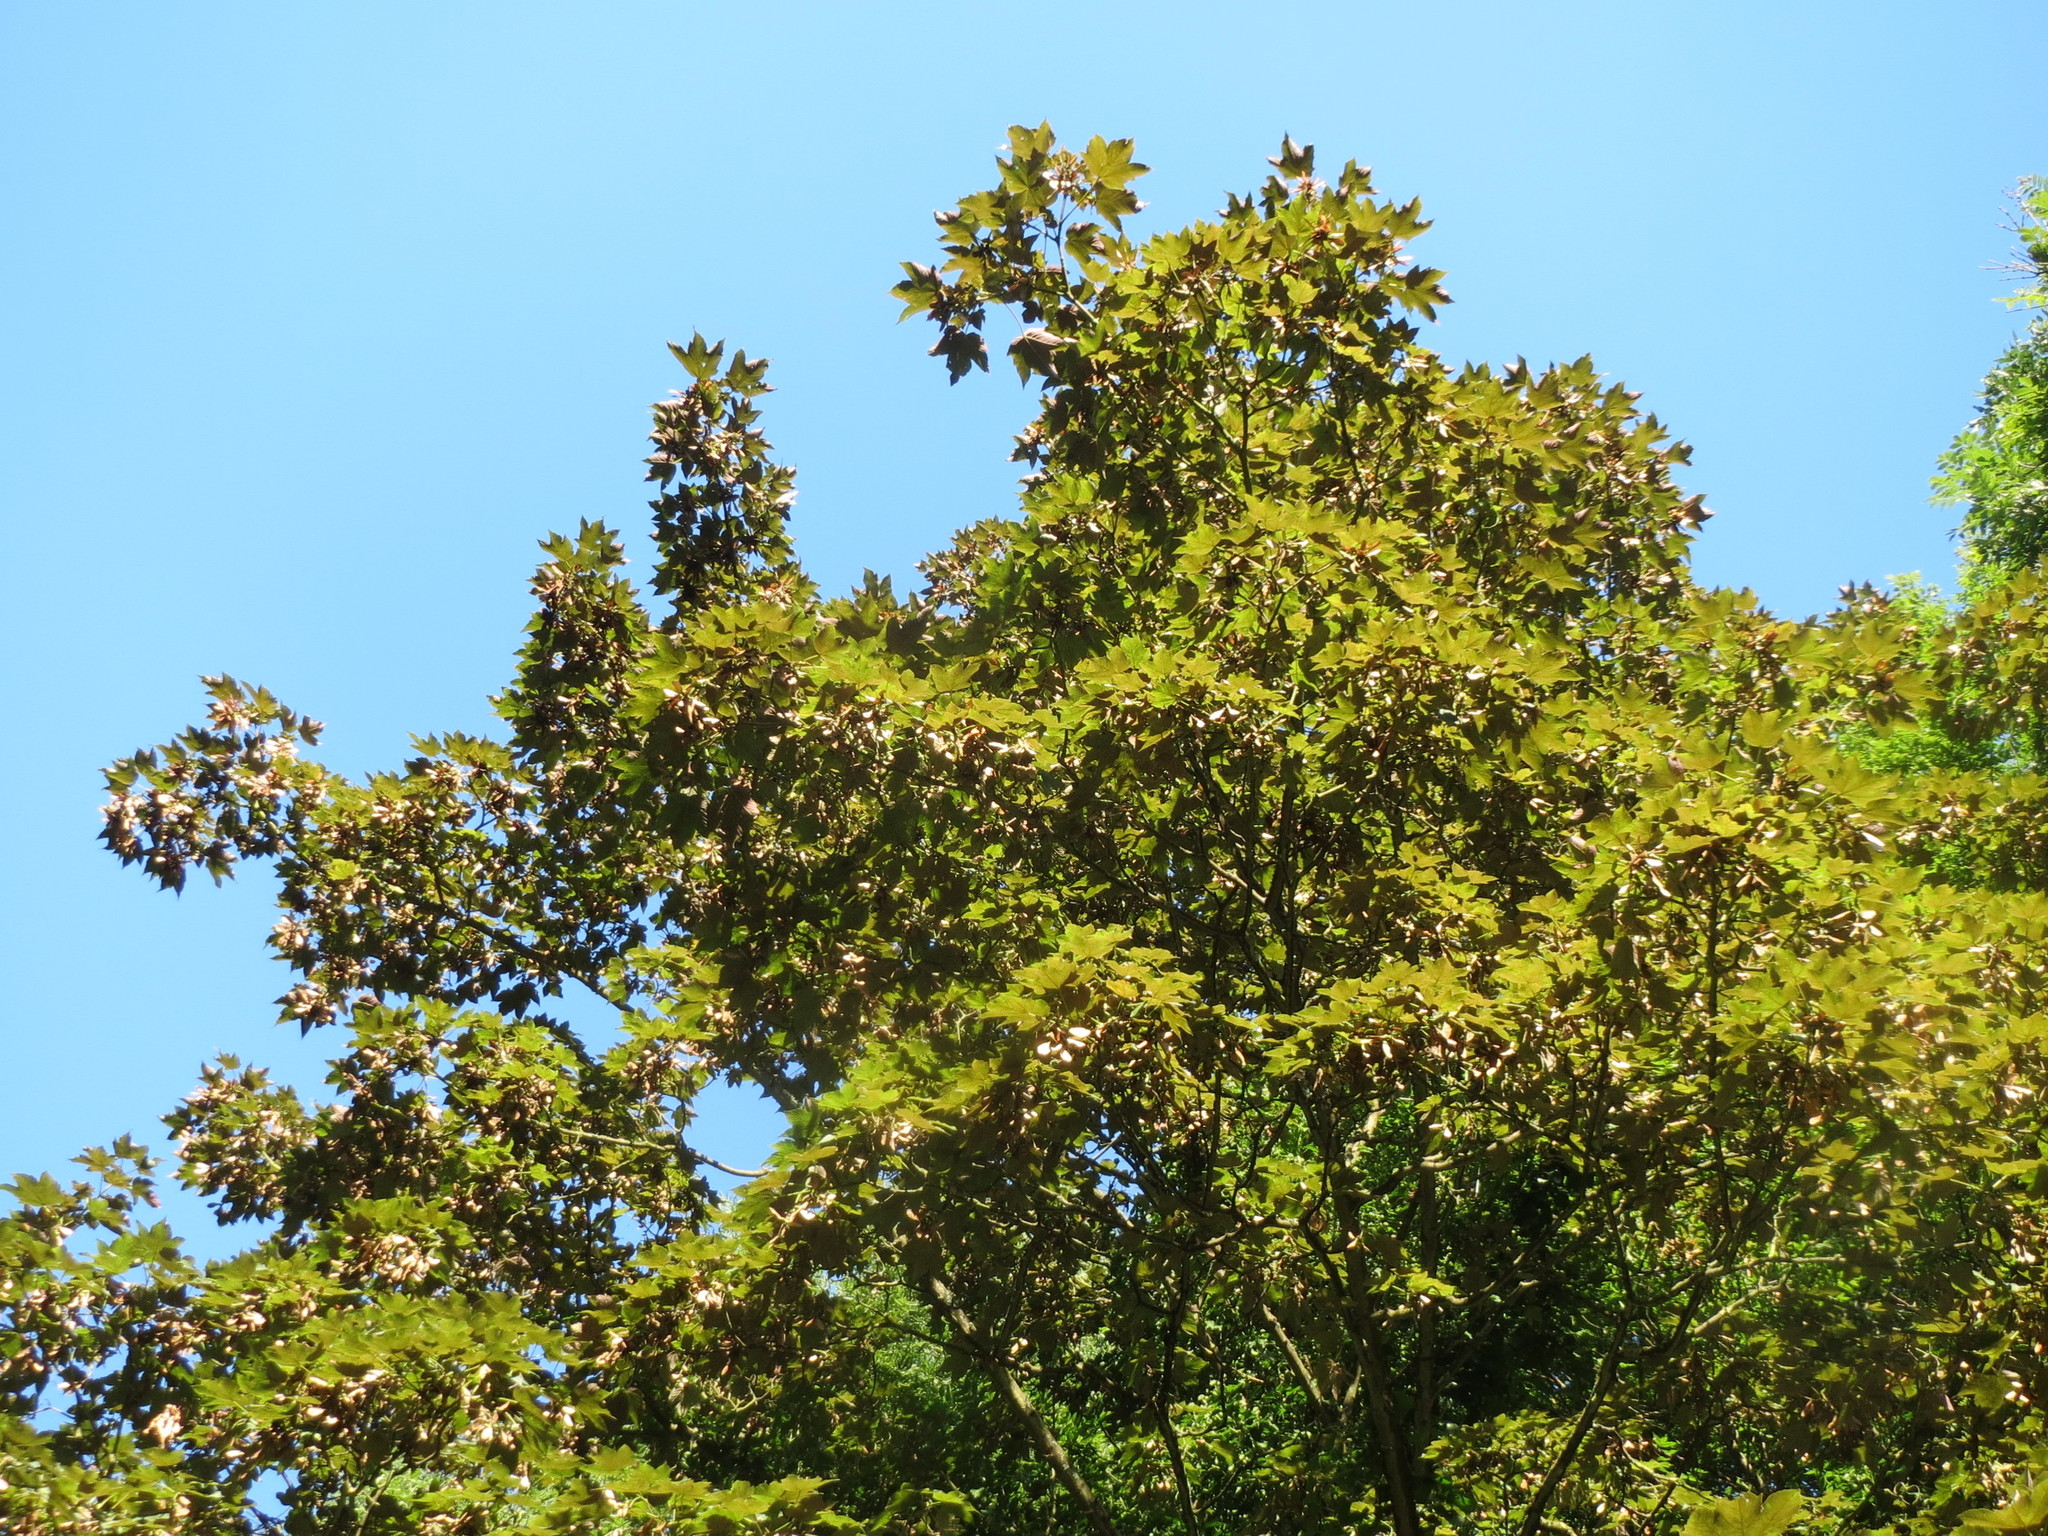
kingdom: Plantae
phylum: Tracheophyta
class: Magnoliopsida
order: Sapindales
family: Sapindaceae
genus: Acer
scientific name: Acer pseudoplatanus
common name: Sycamore
